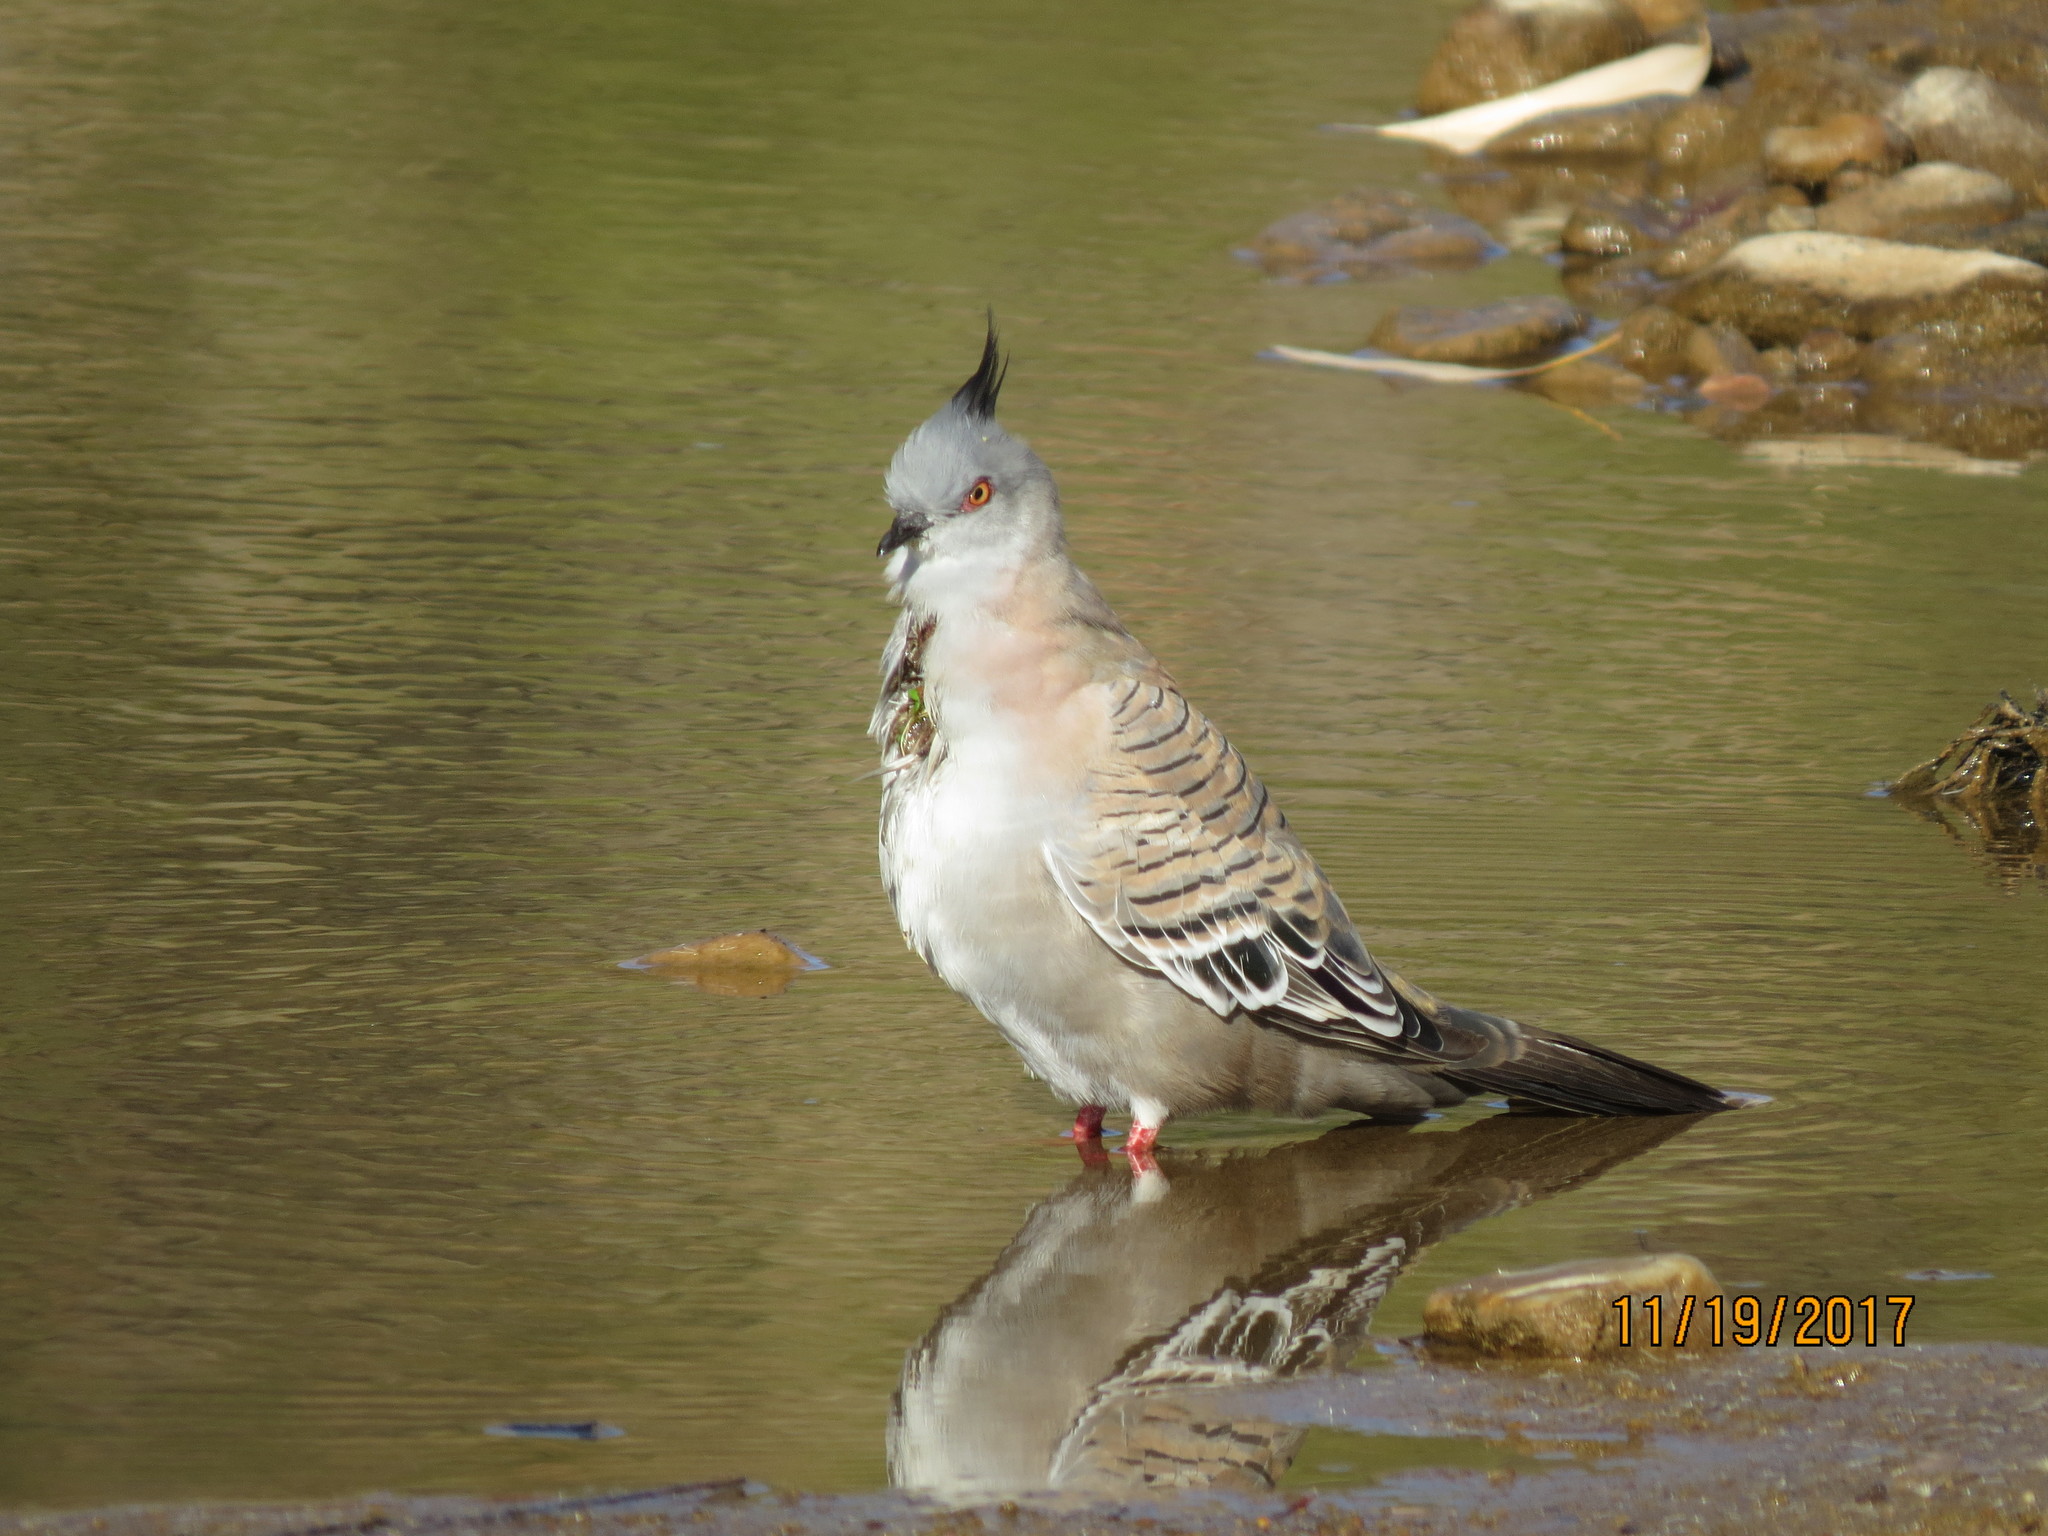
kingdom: Animalia
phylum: Chordata
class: Aves
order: Columbiformes
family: Columbidae
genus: Ocyphaps
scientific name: Ocyphaps lophotes
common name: Crested pigeon
